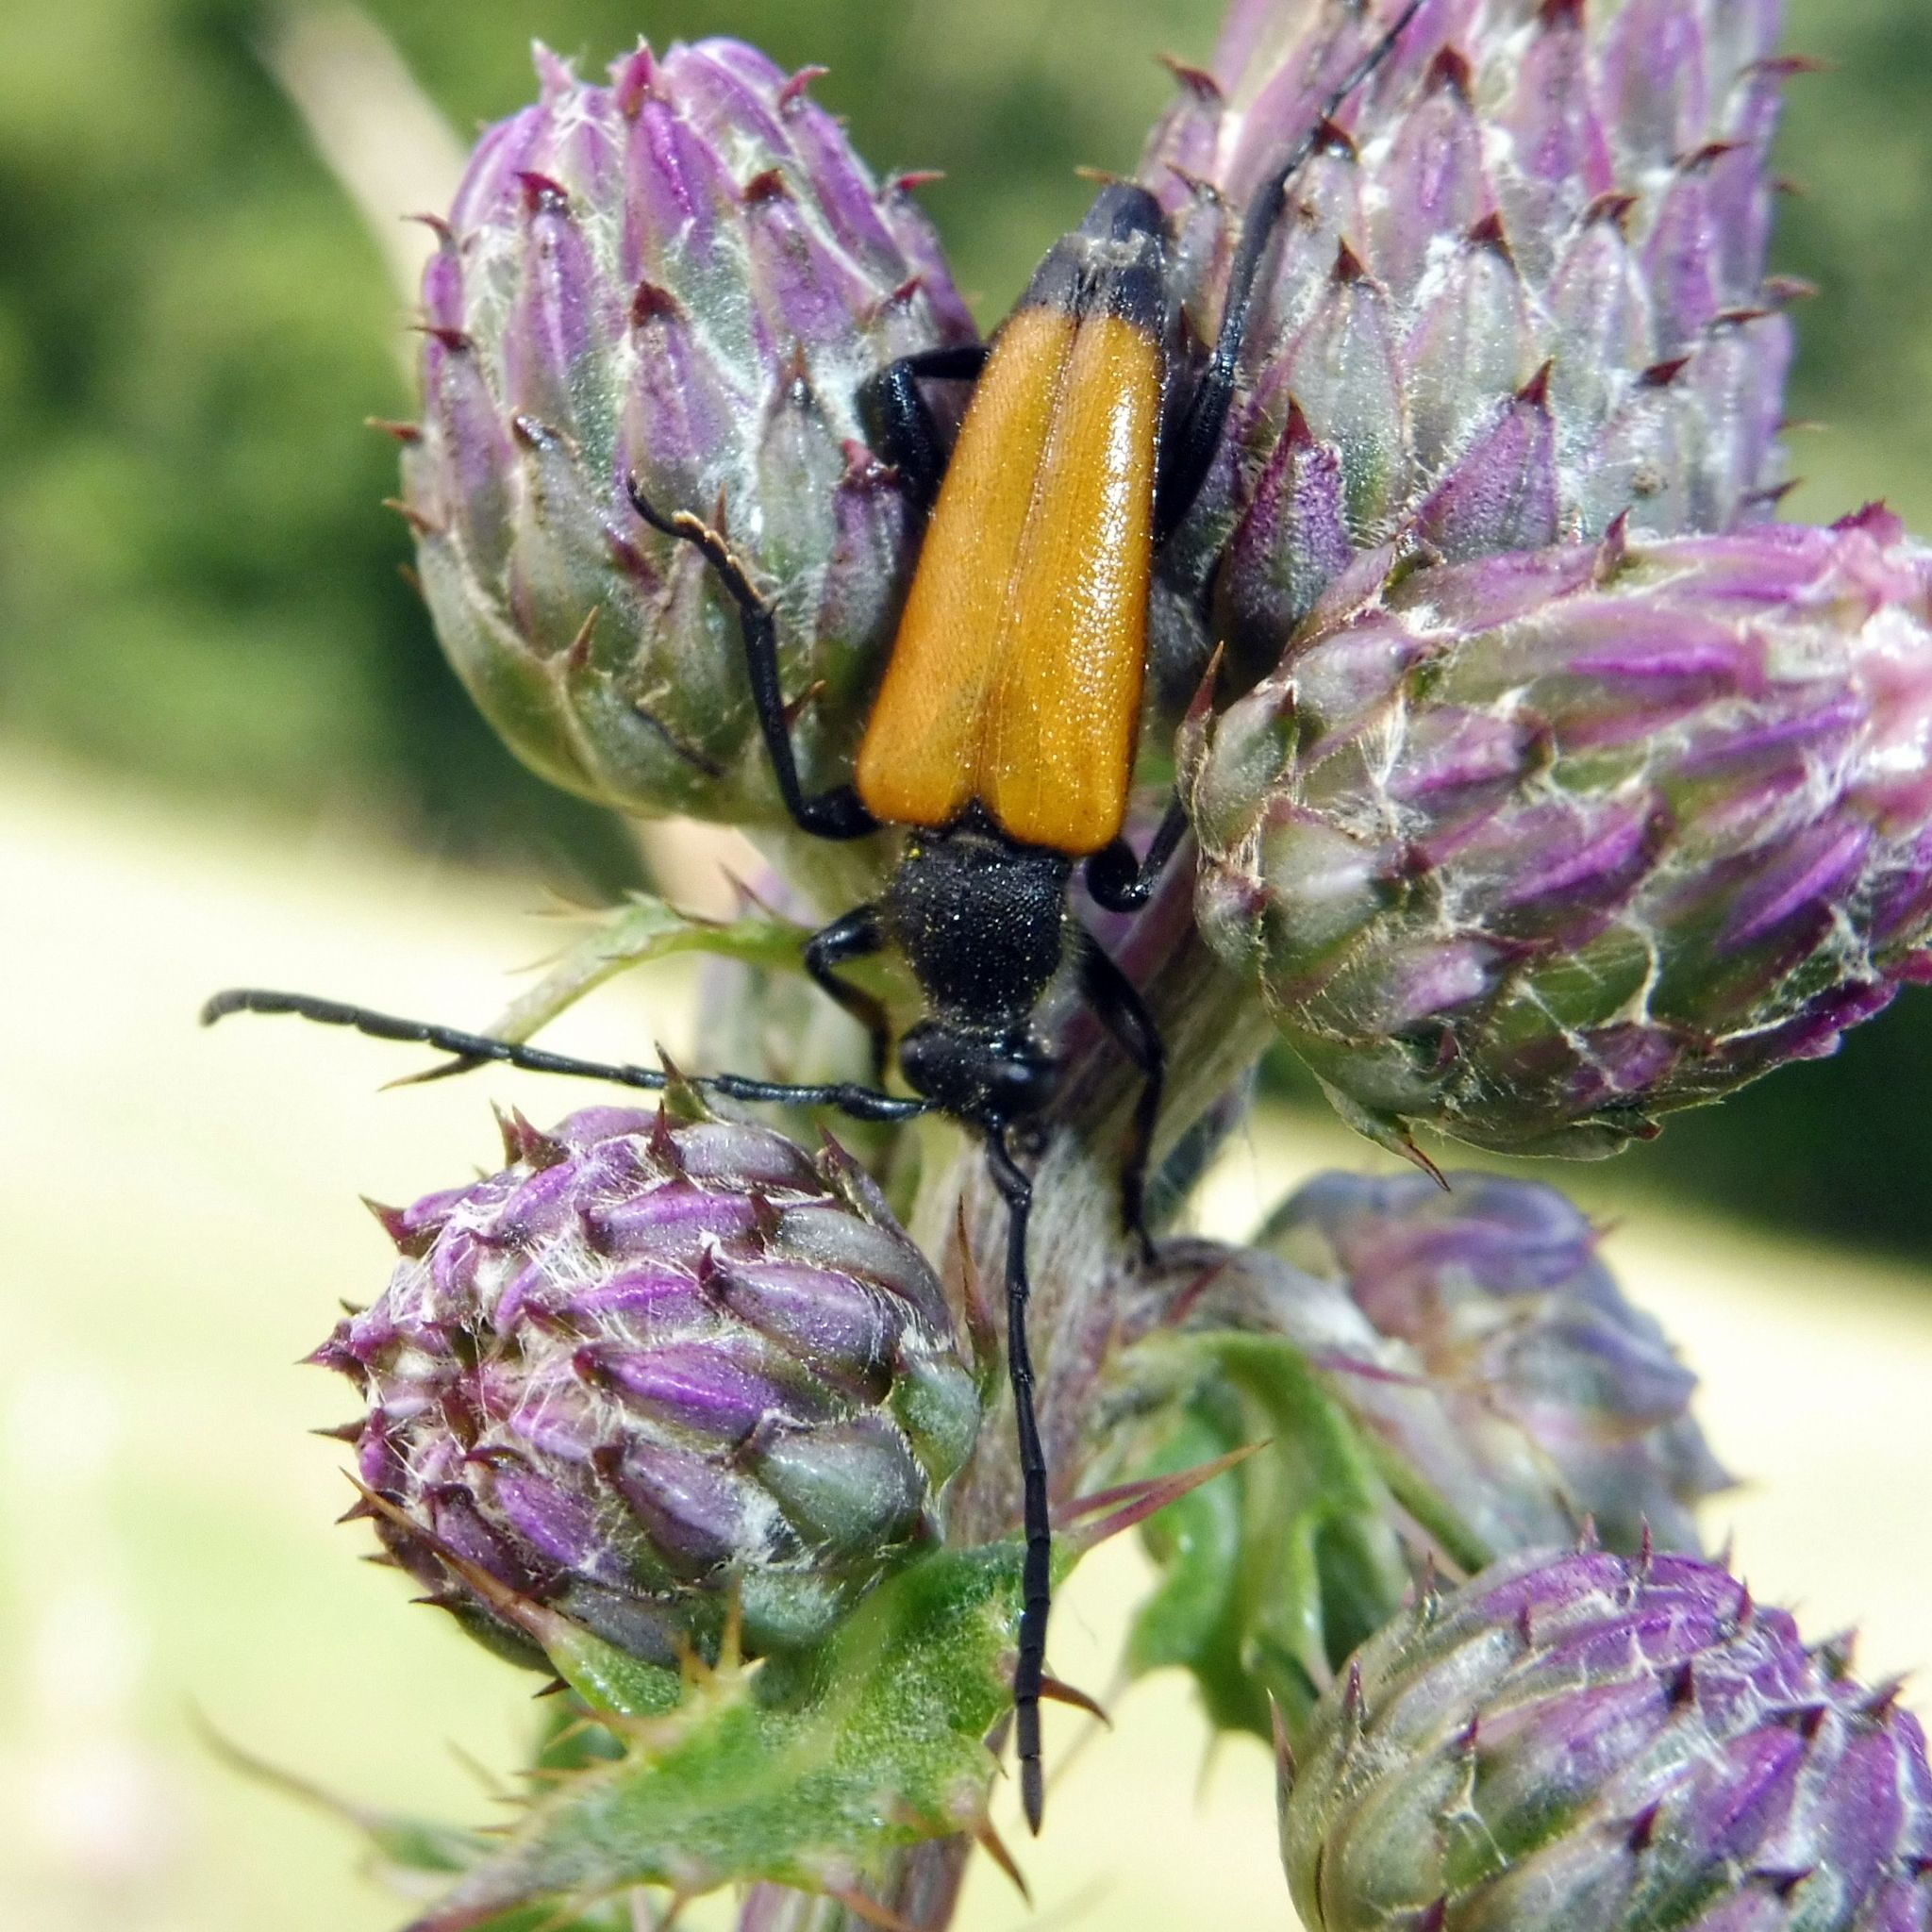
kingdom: Animalia
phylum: Arthropoda
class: Insecta
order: Coleoptera
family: Cerambycidae
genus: Paracorymbia
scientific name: Paracorymbia fulva
